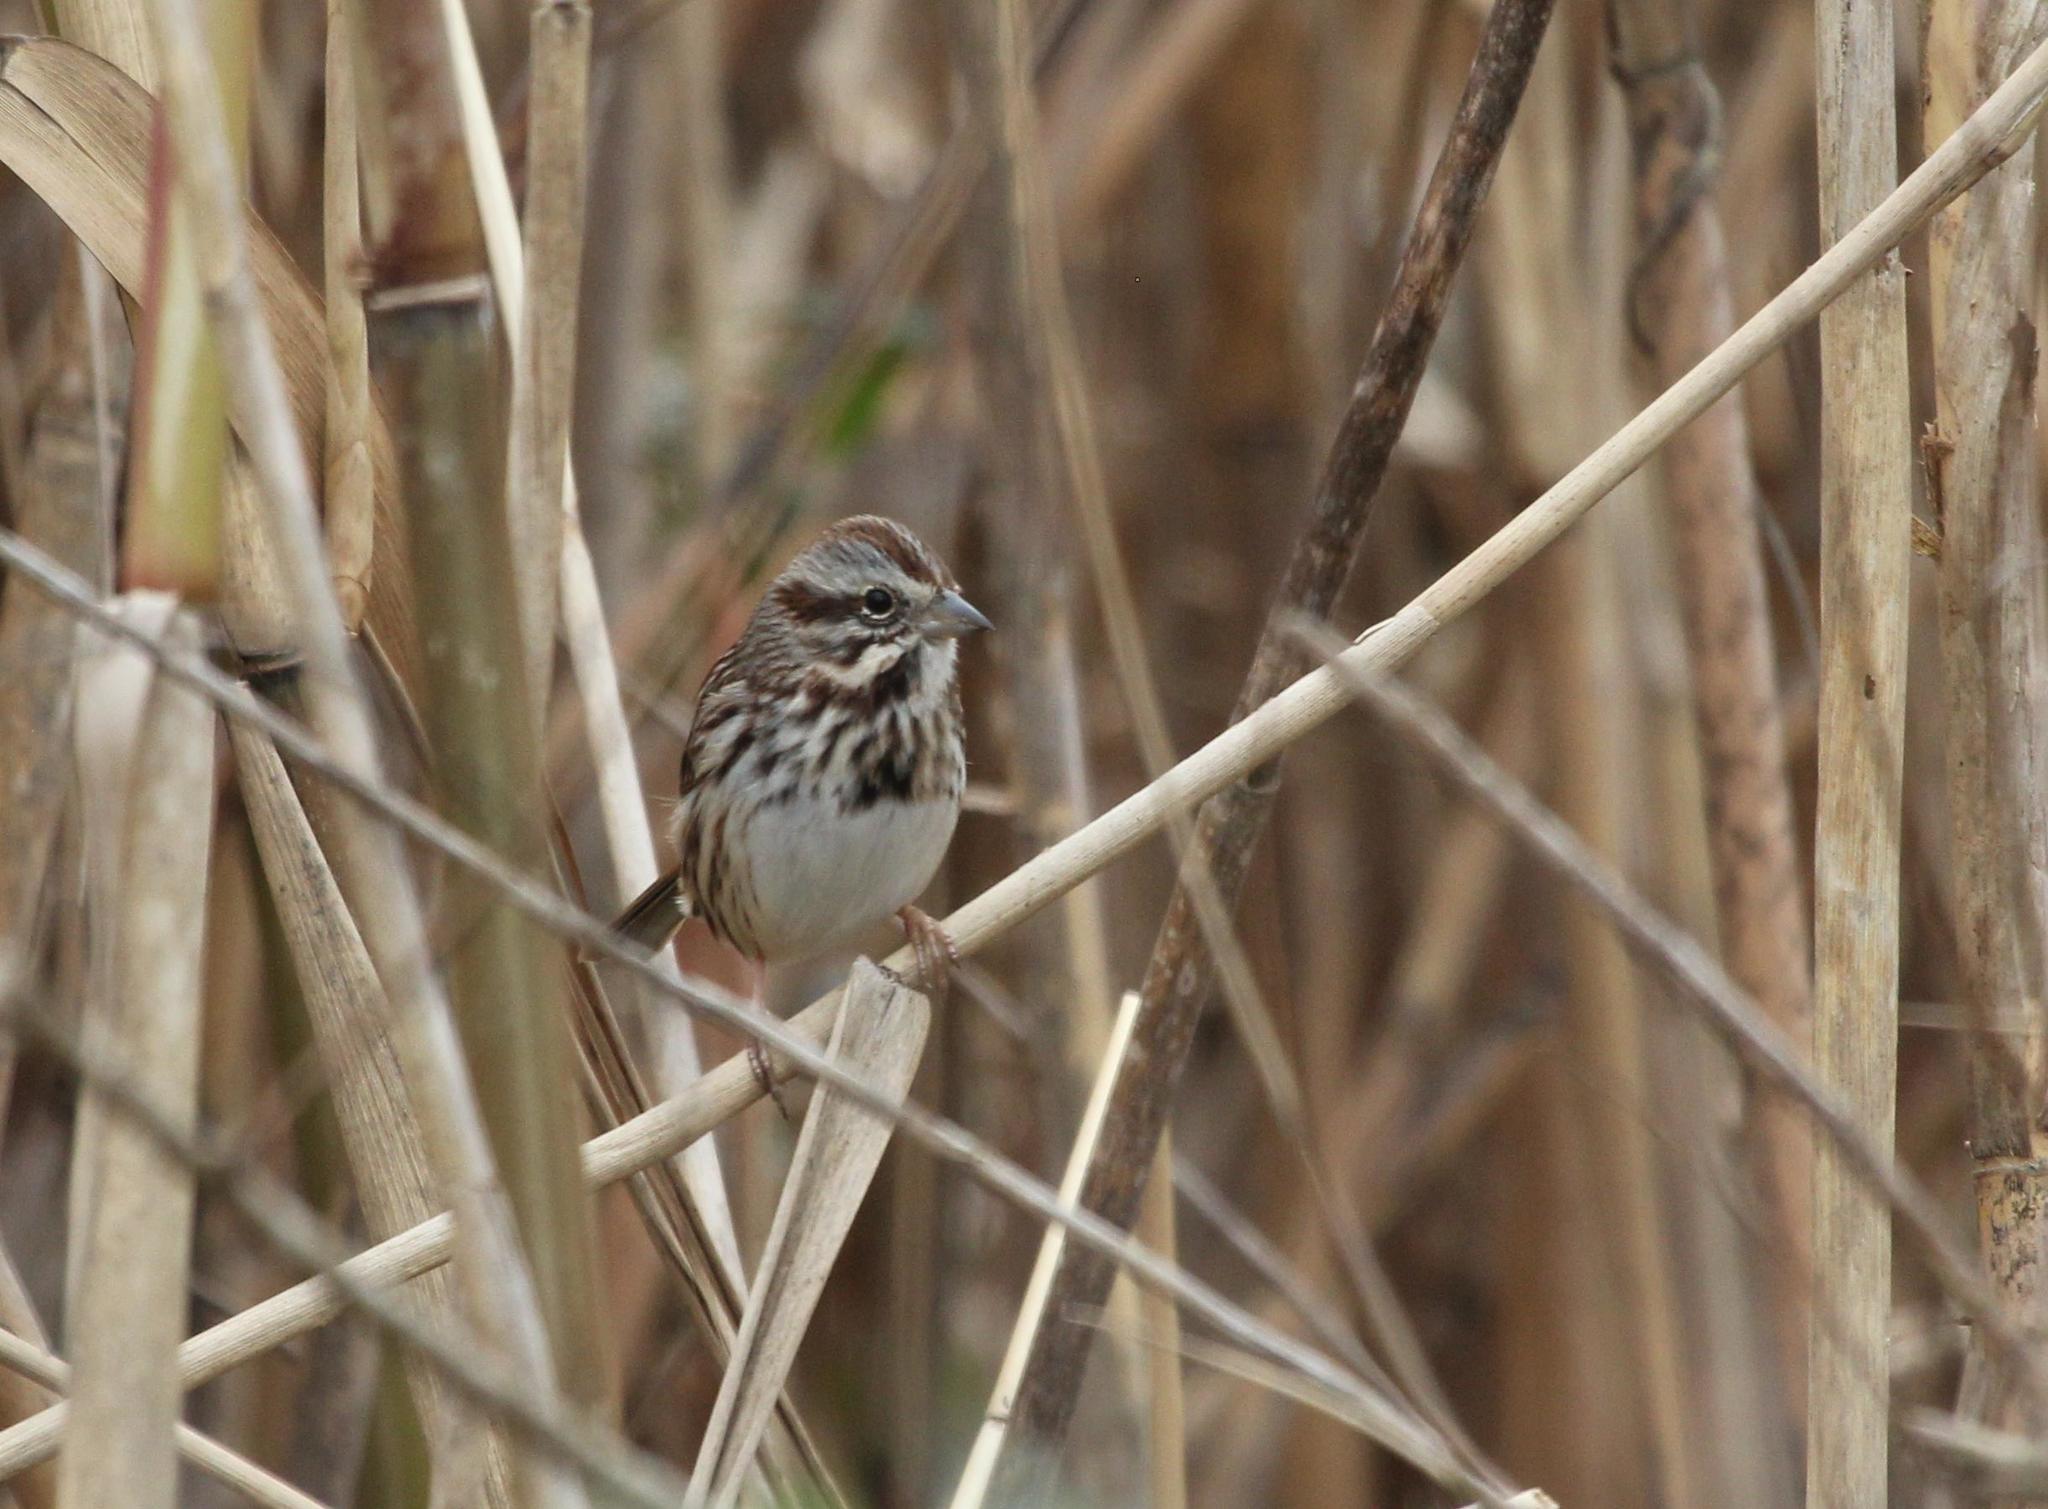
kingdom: Animalia
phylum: Chordata
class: Aves
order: Passeriformes
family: Passerellidae
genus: Melospiza
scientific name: Melospiza melodia
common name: Song sparrow
